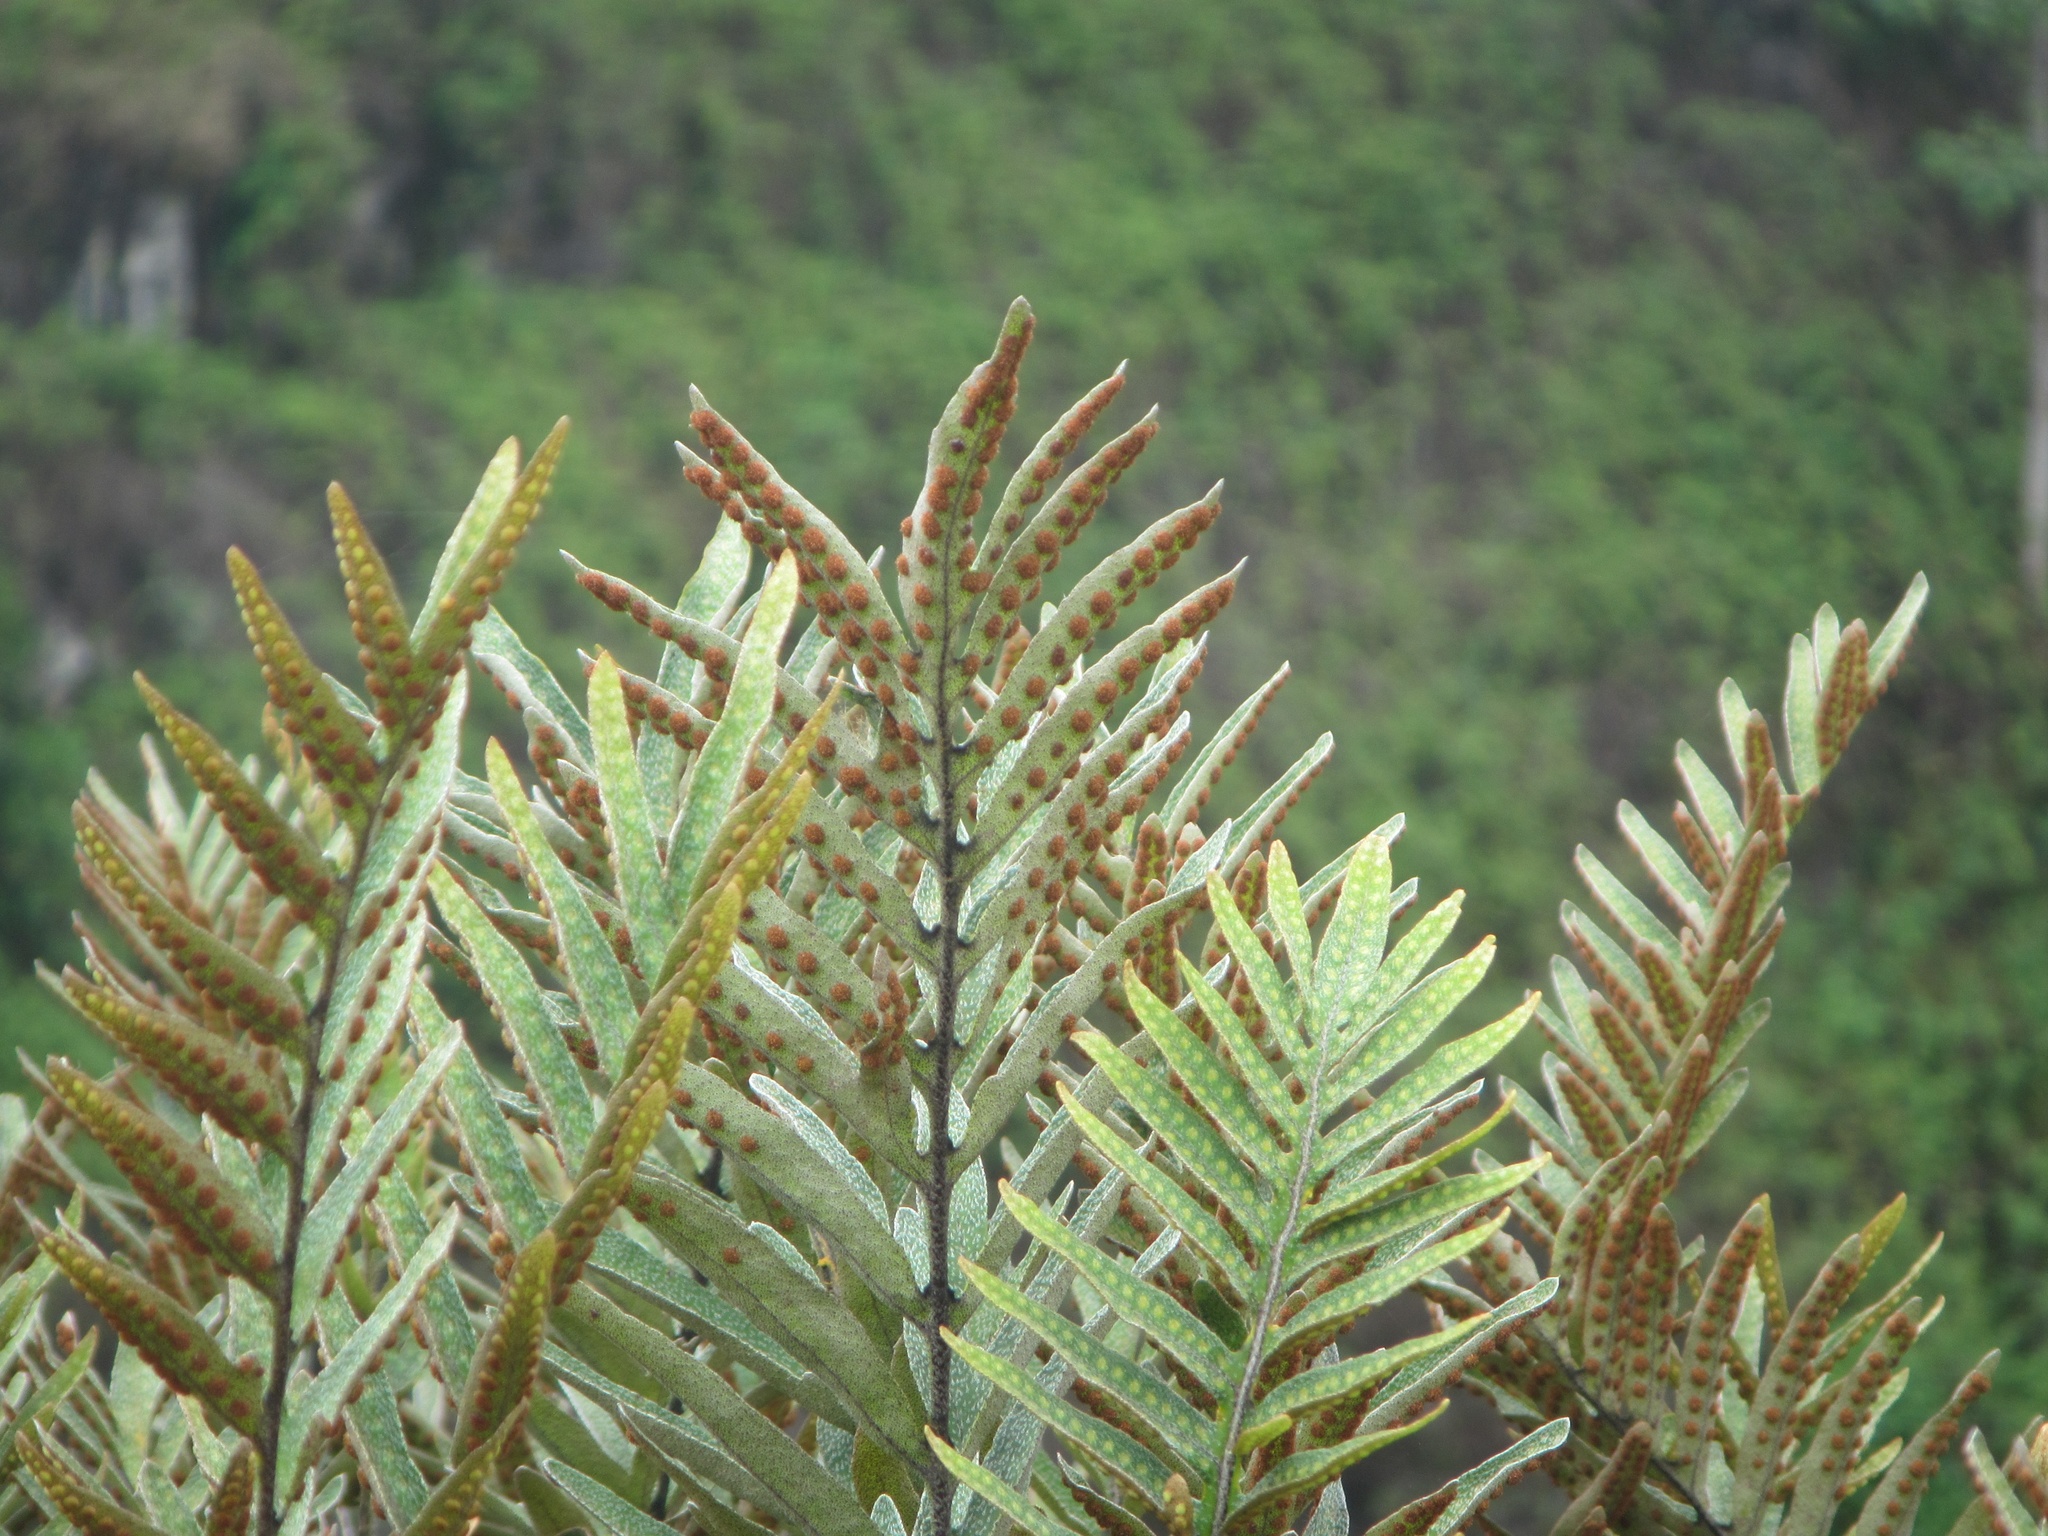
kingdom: Plantae
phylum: Tracheophyta
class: Polypodiopsida
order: Polypodiales
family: Polypodiaceae
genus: Pleopeltis
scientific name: Pleopeltis tridens
